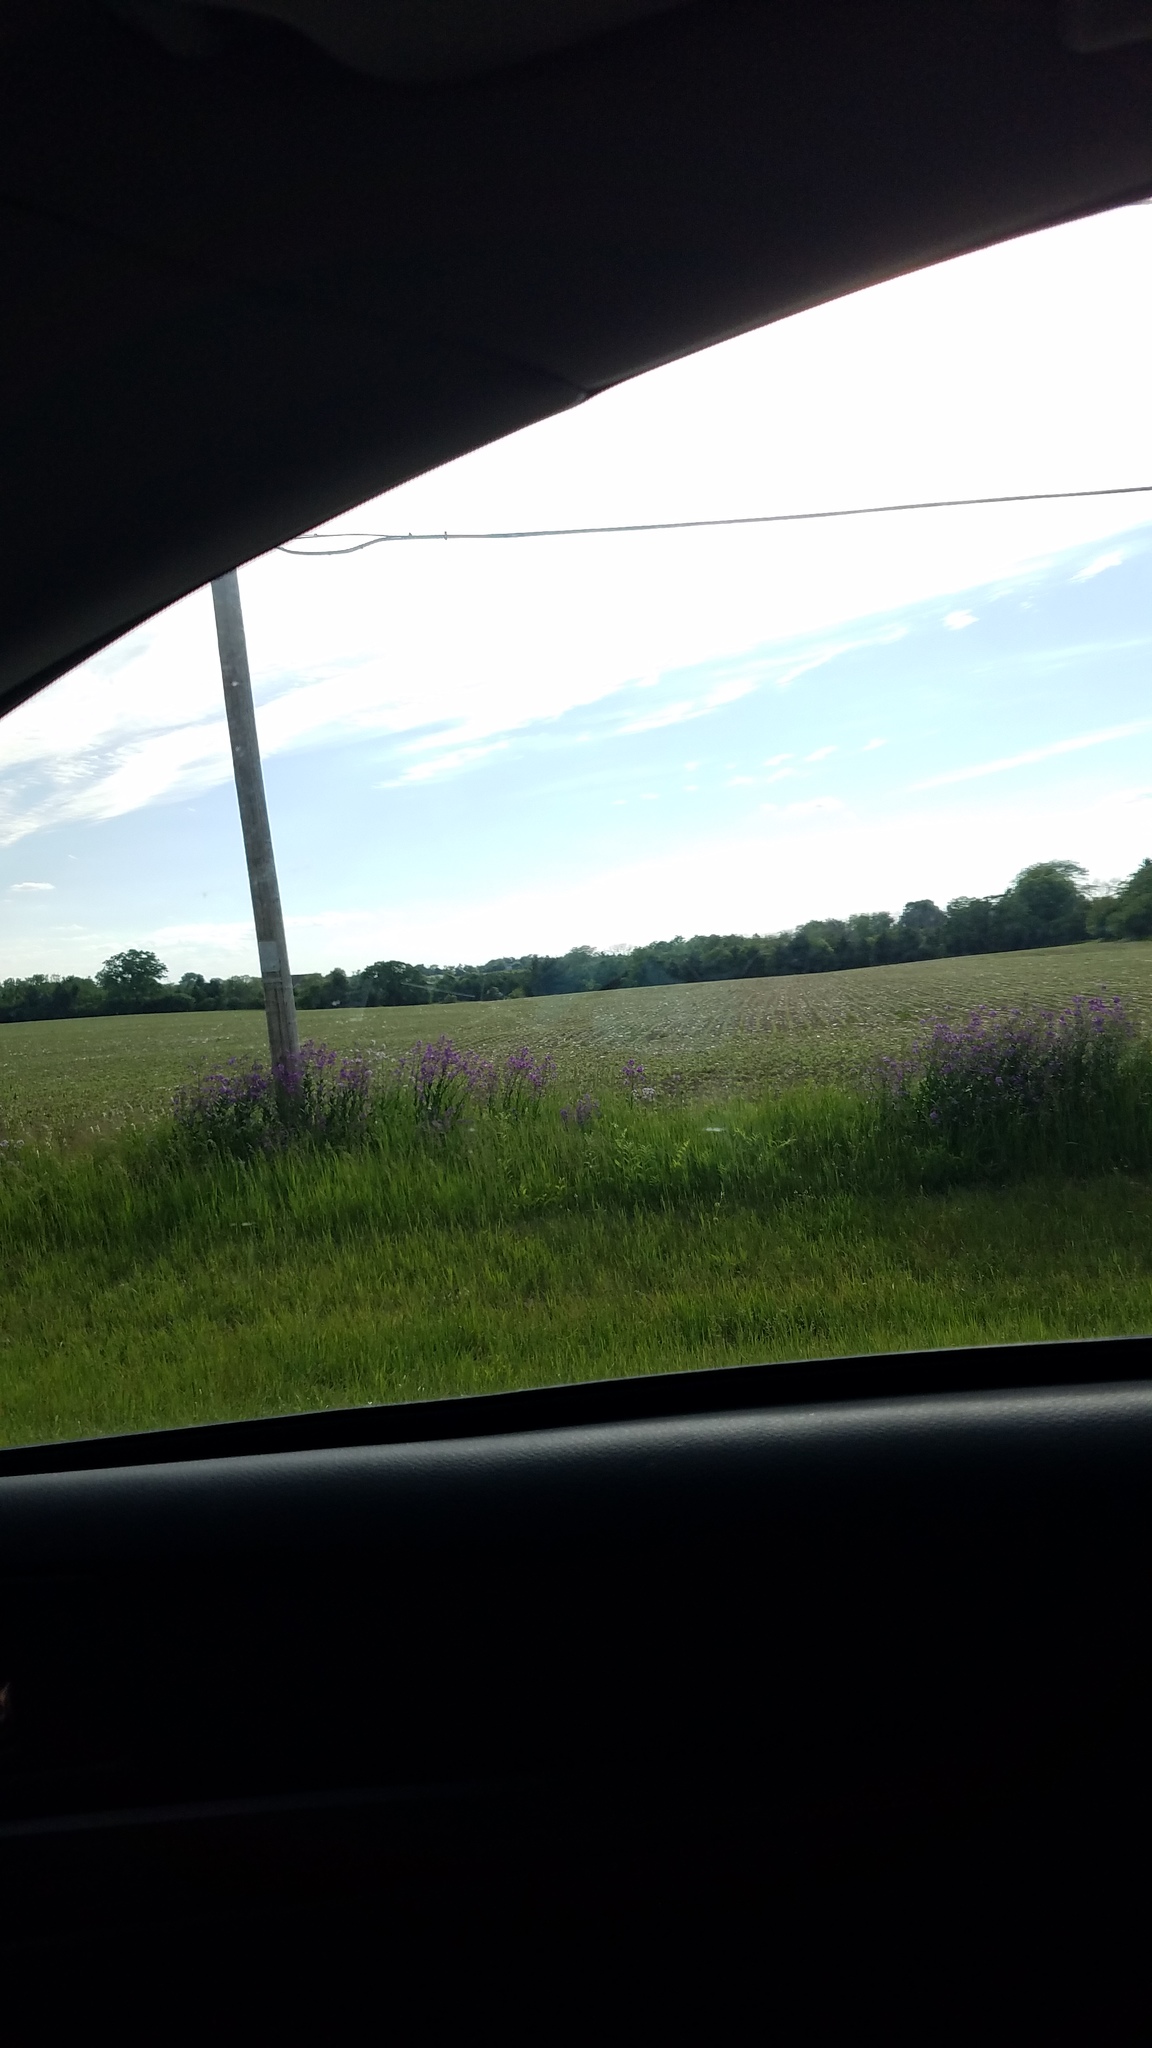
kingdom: Plantae
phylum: Tracheophyta
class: Magnoliopsida
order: Brassicales
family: Brassicaceae
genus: Hesperis
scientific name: Hesperis matronalis
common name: Dame's-violet
